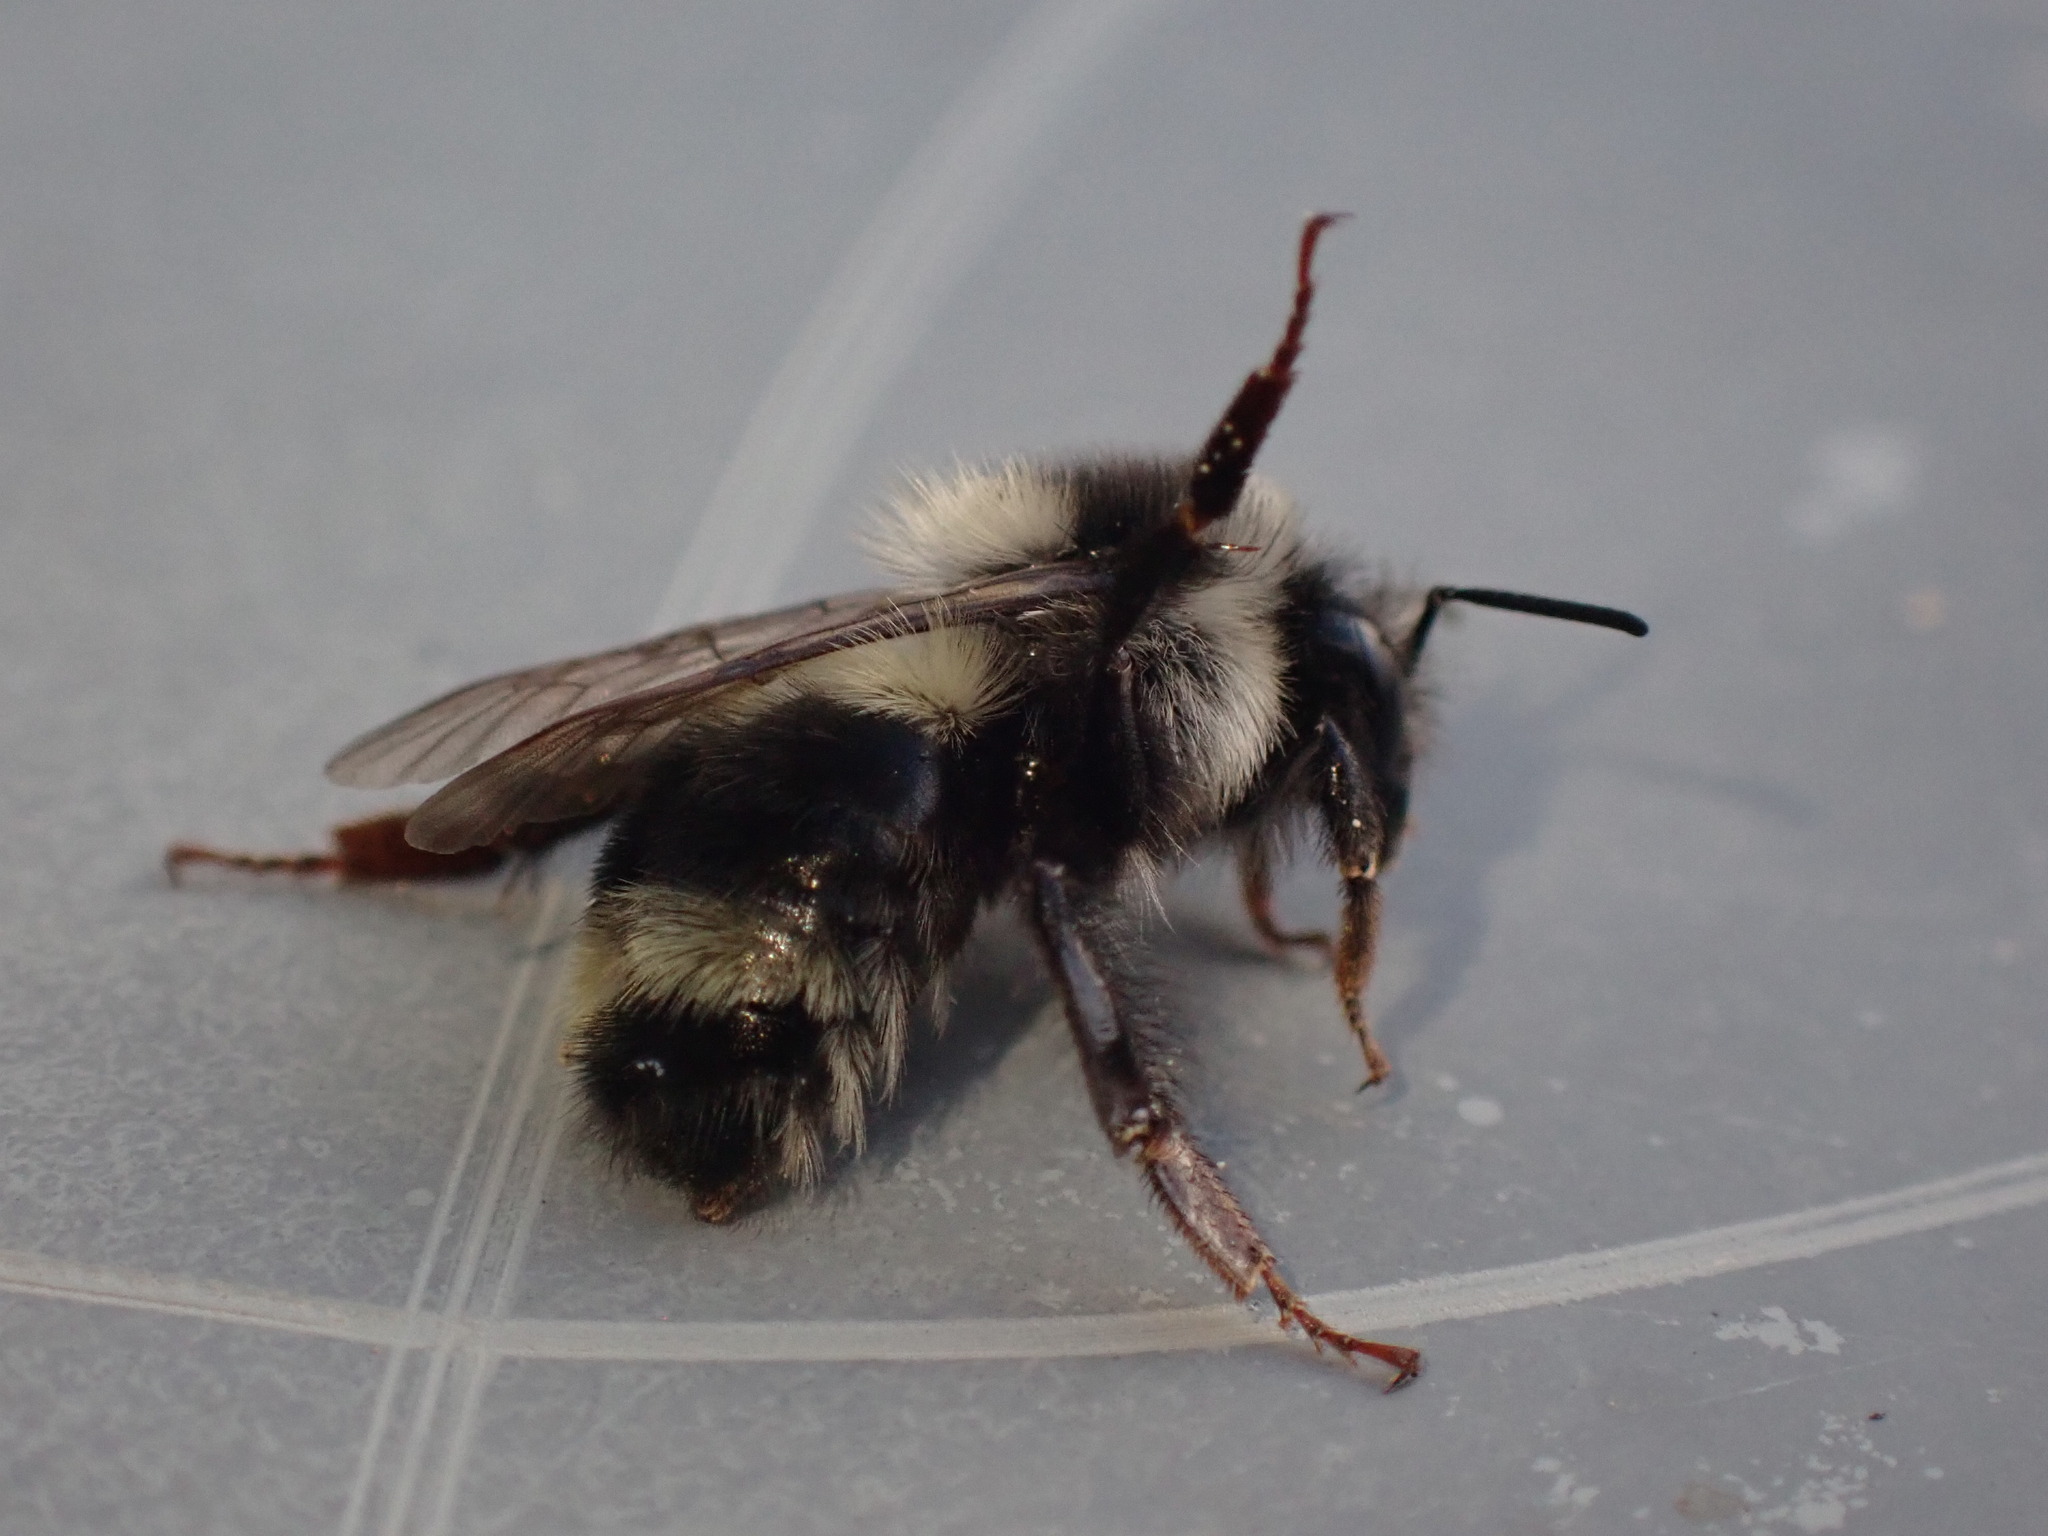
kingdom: Animalia
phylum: Arthropoda
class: Insecta
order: Hymenoptera
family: Apidae
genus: Bombus
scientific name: Bombus vancouverensis
